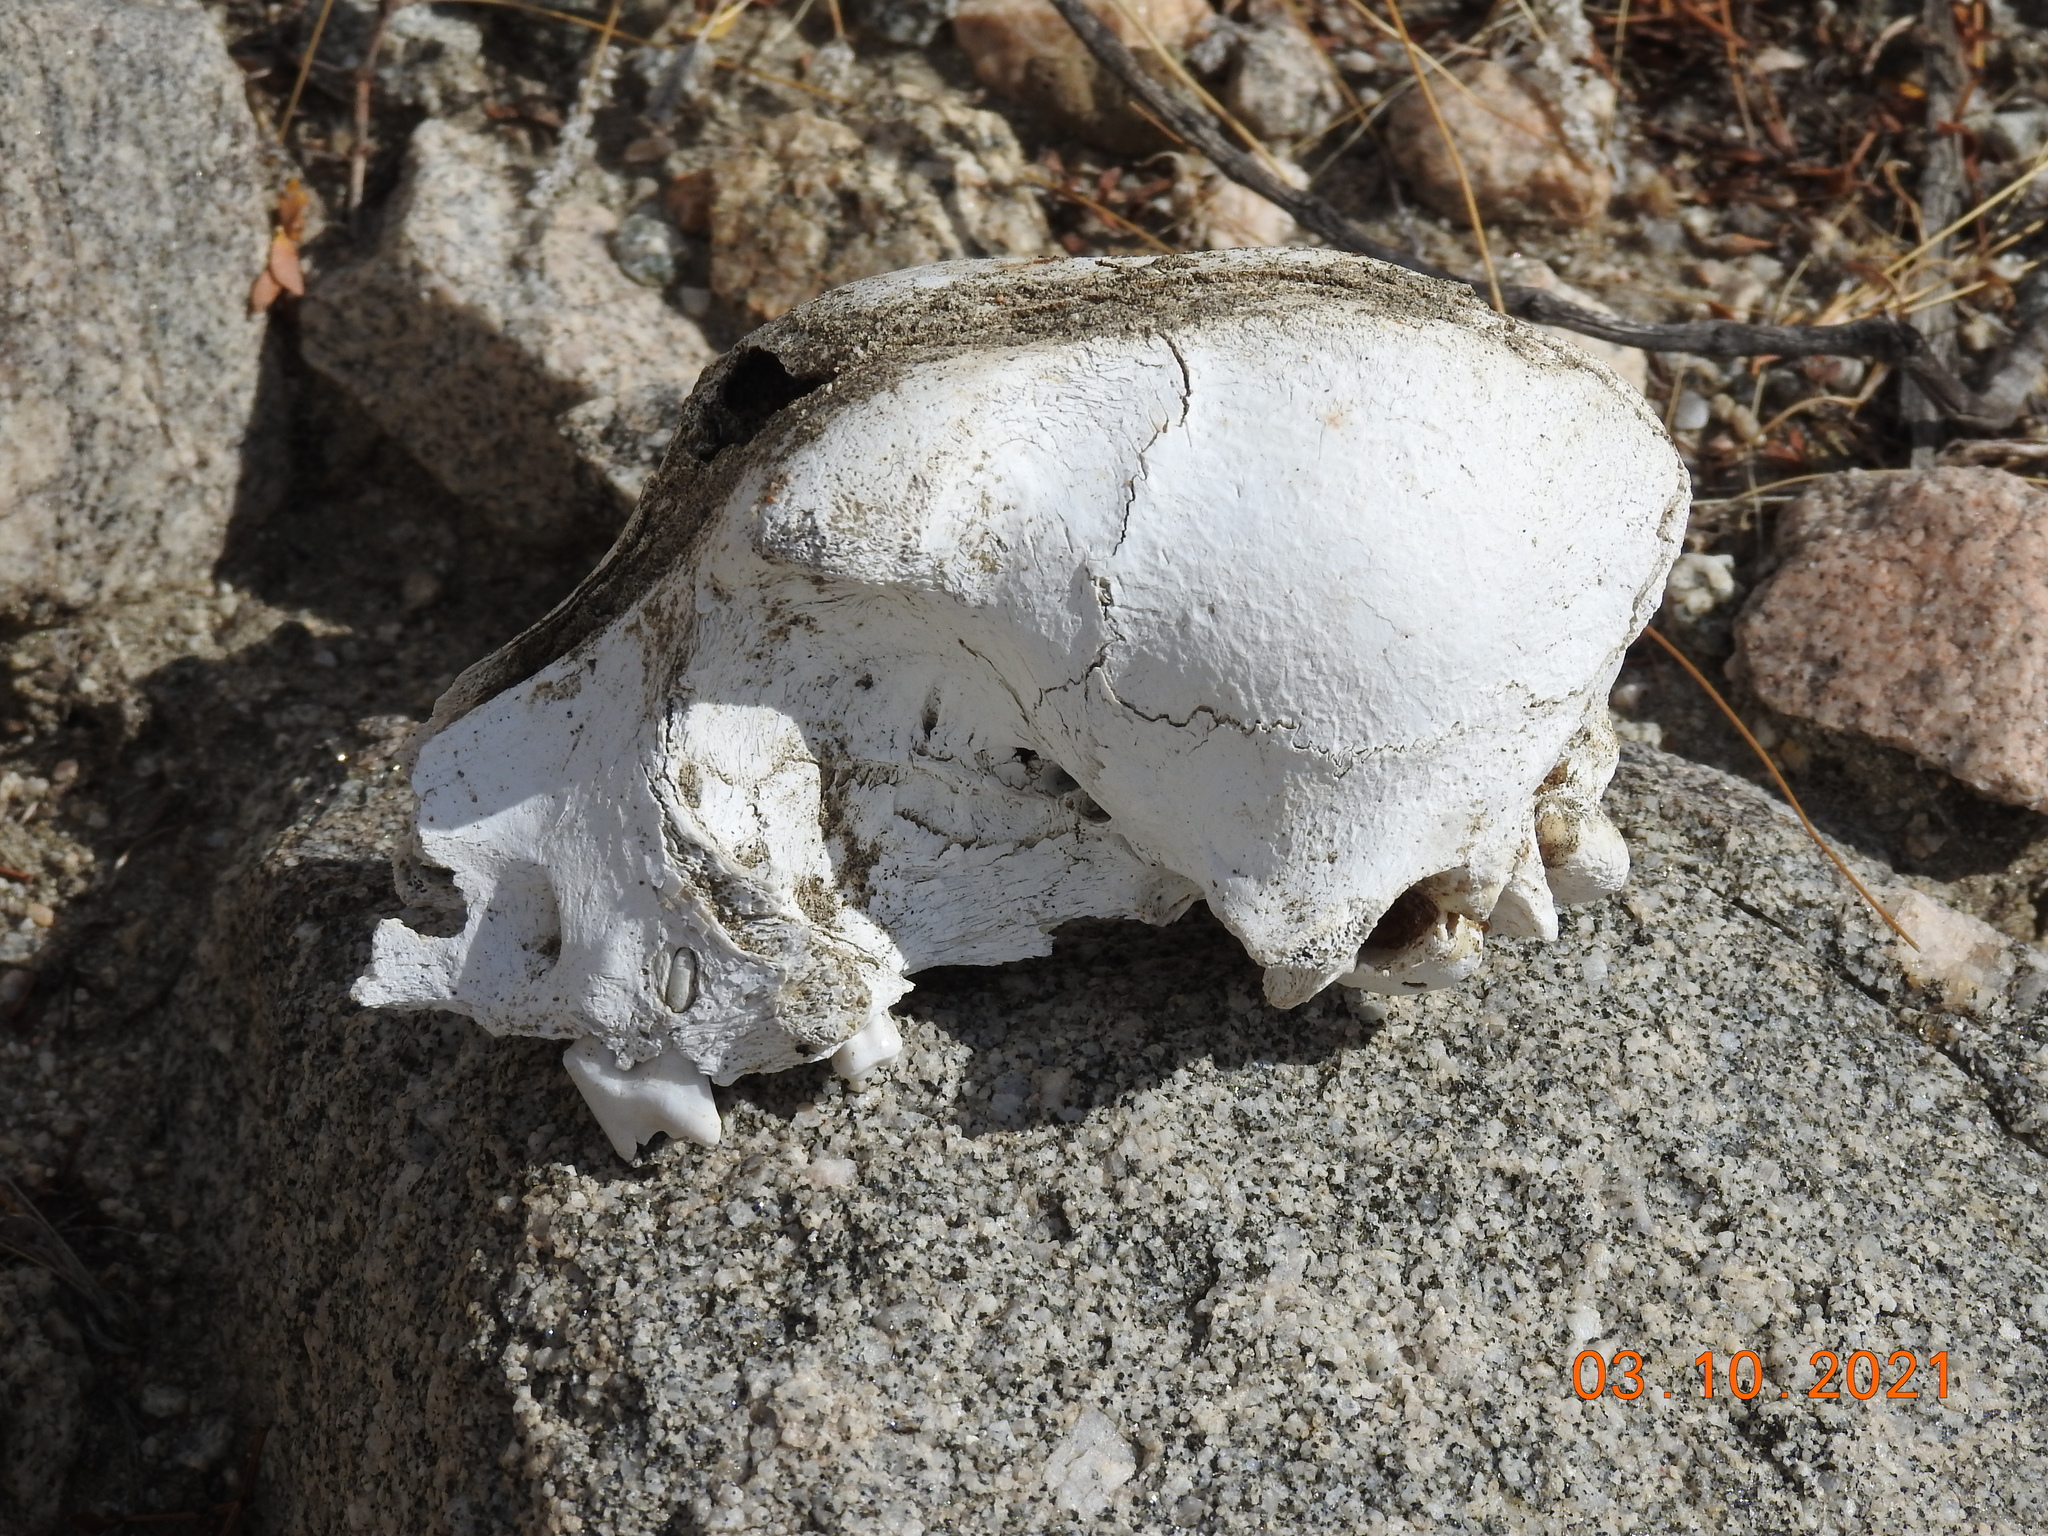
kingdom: Animalia
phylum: Chordata
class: Mammalia
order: Carnivora
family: Canidae
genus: Canis
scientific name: Canis lupus
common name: Gray wolf
